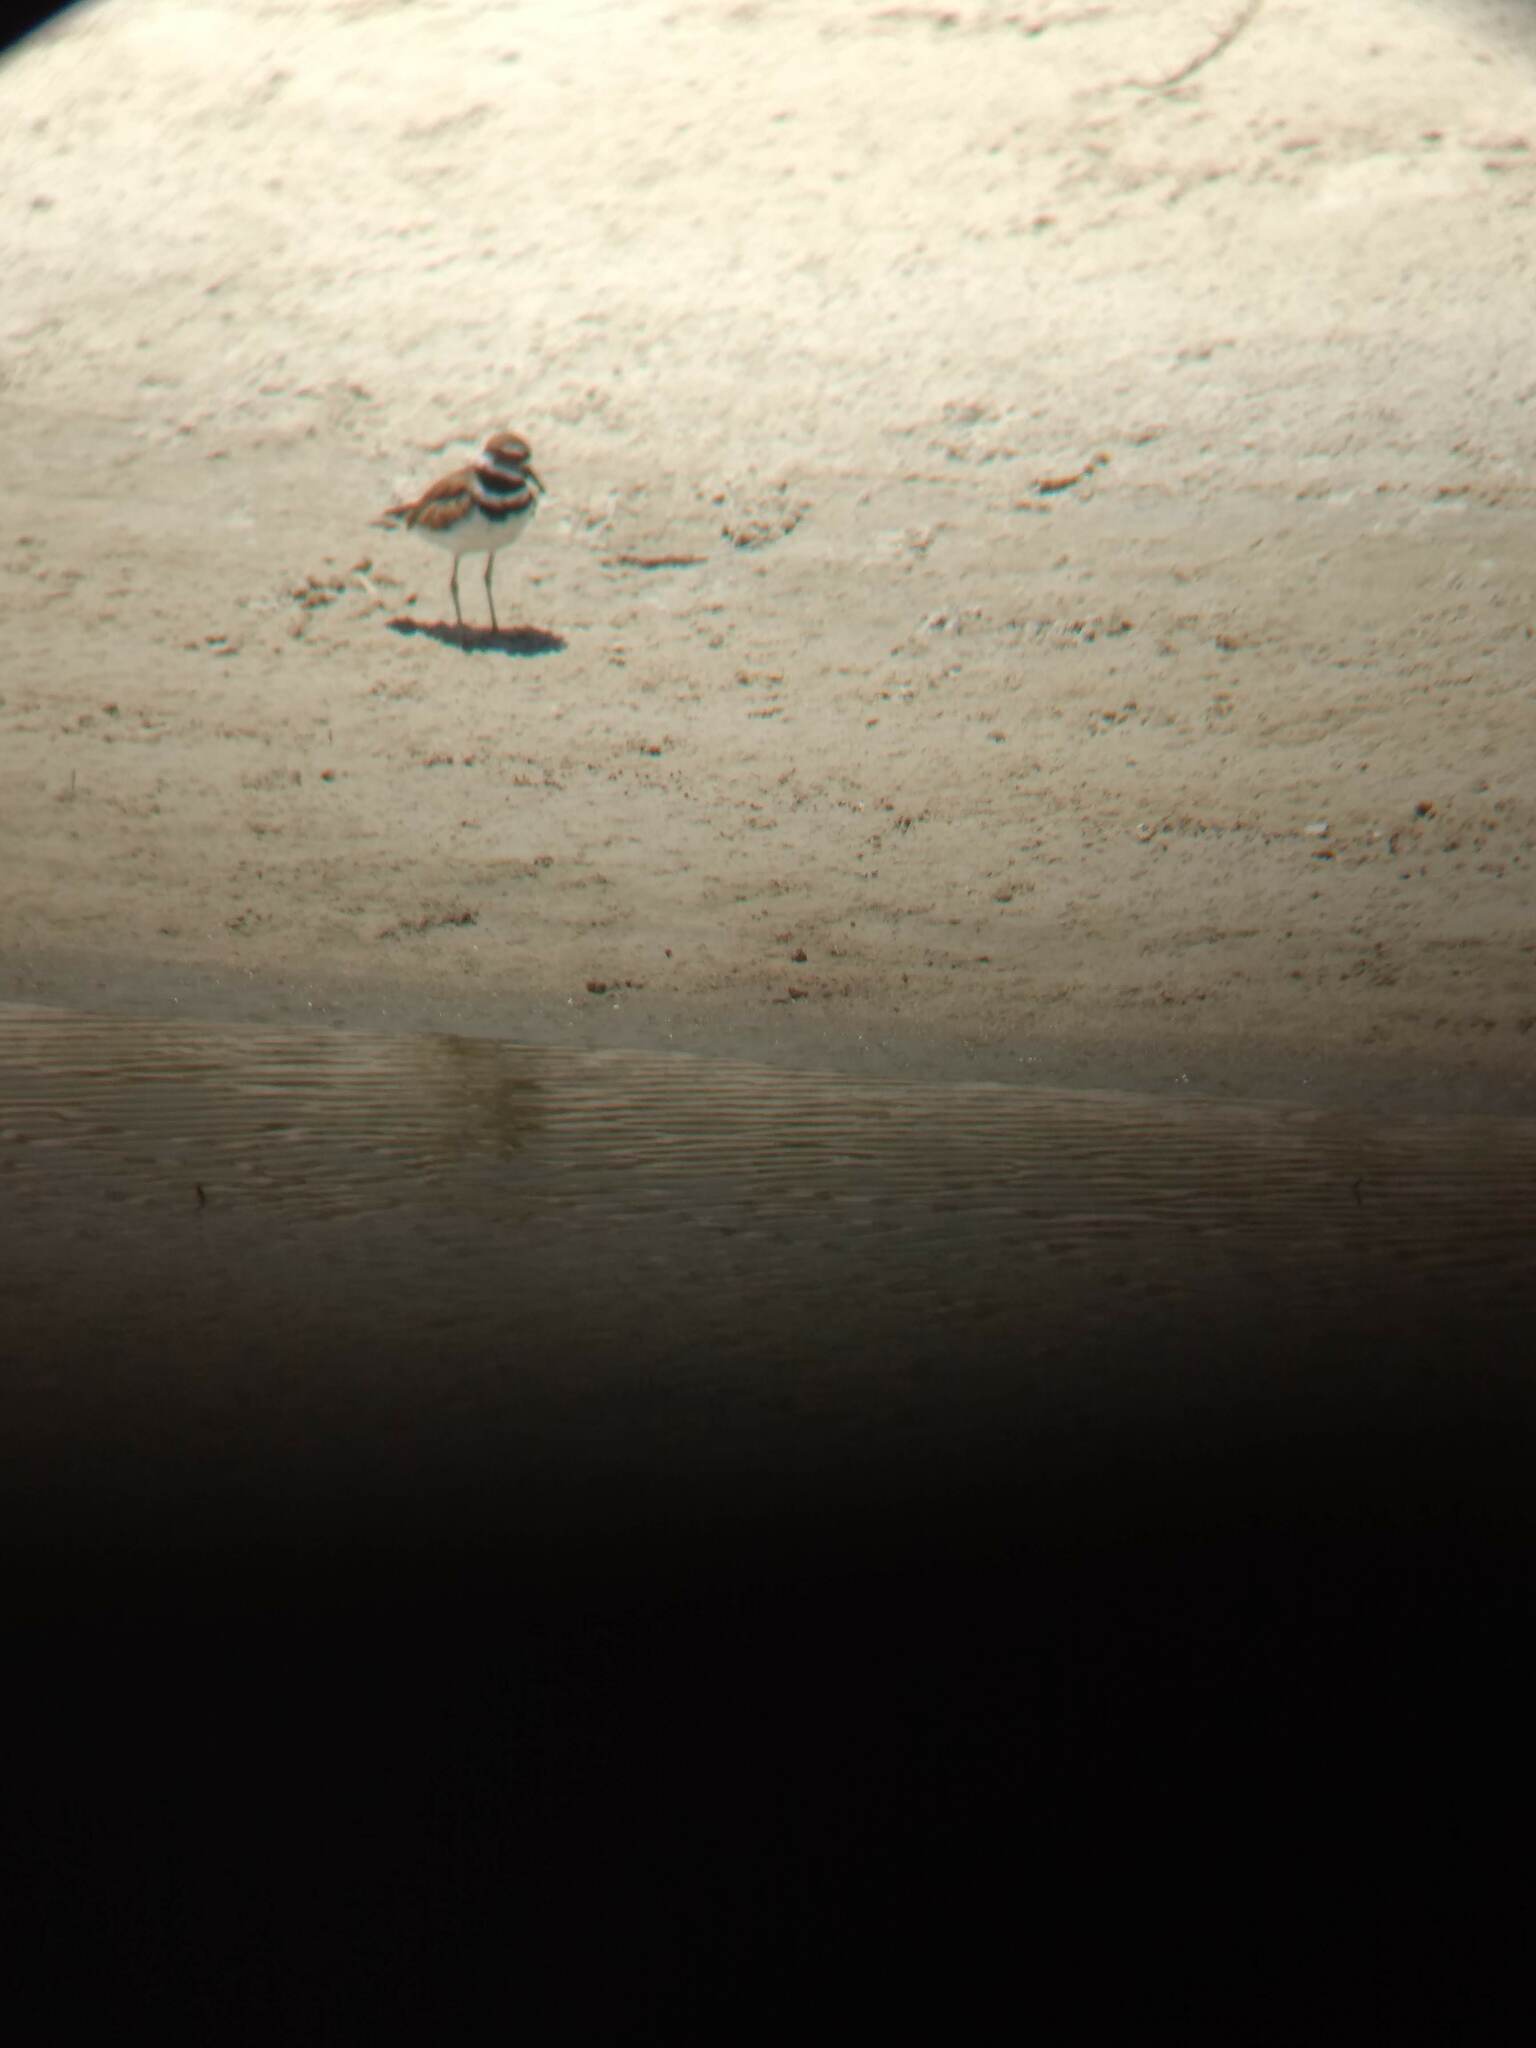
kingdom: Animalia
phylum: Chordata
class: Aves
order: Charadriiformes
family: Charadriidae
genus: Charadrius
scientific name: Charadrius vociferus
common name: Killdeer
